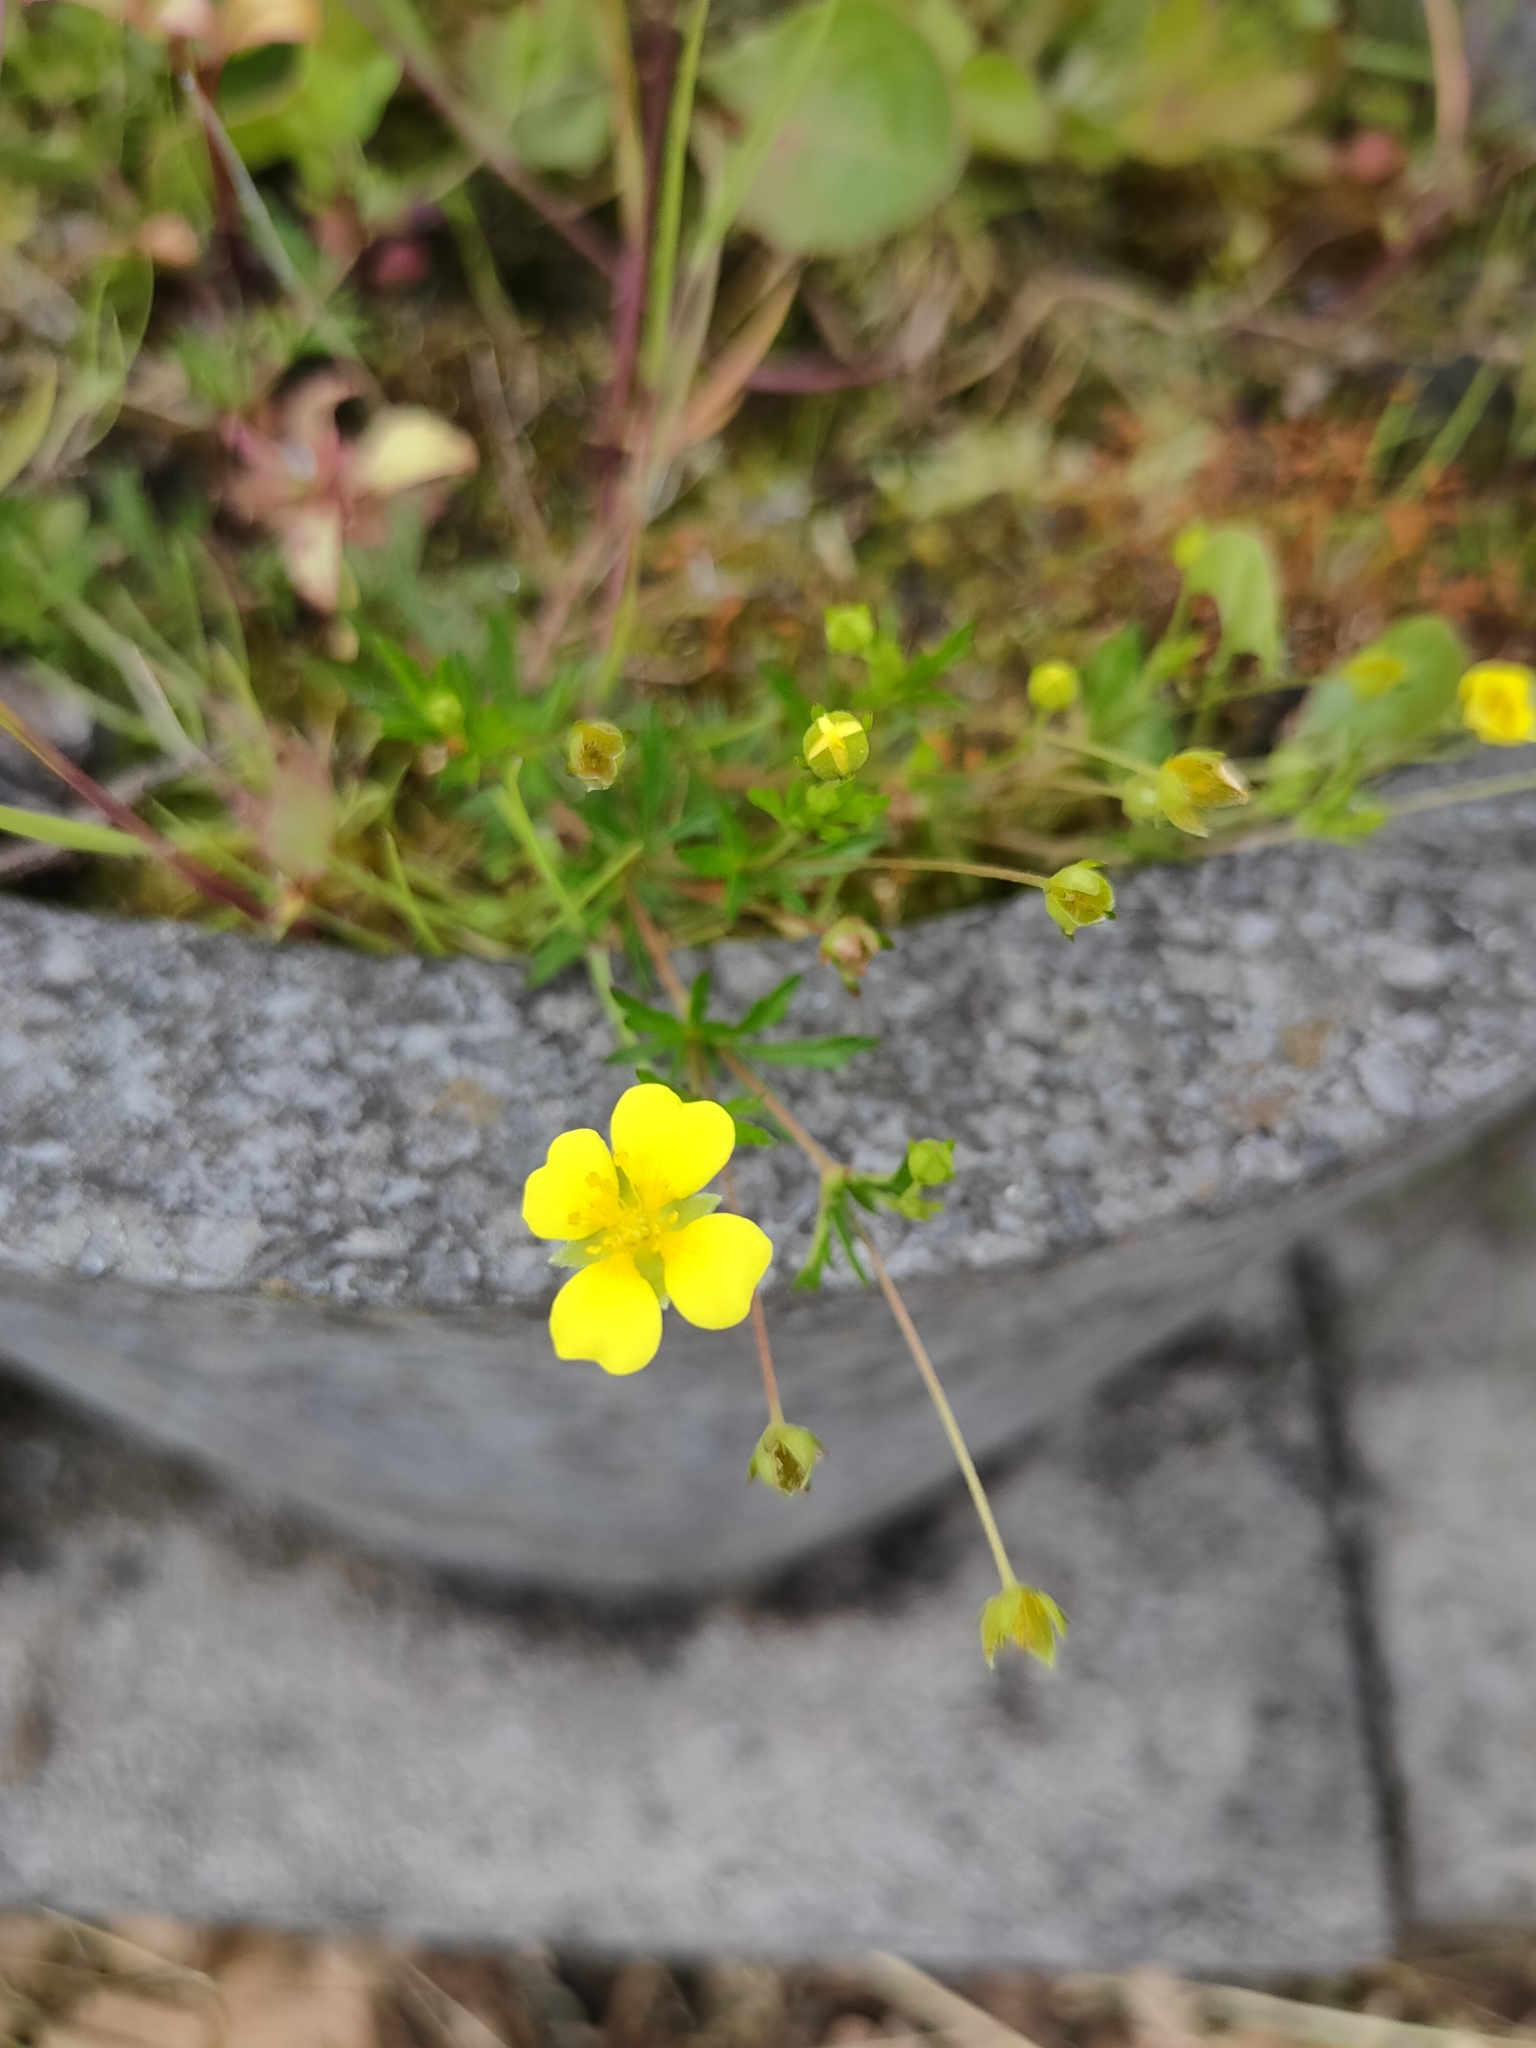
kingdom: Plantae
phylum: Tracheophyta
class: Magnoliopsida
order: Rosales
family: Rosaceae
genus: Potentilla
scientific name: Potentilla erecta
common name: Tormentil
